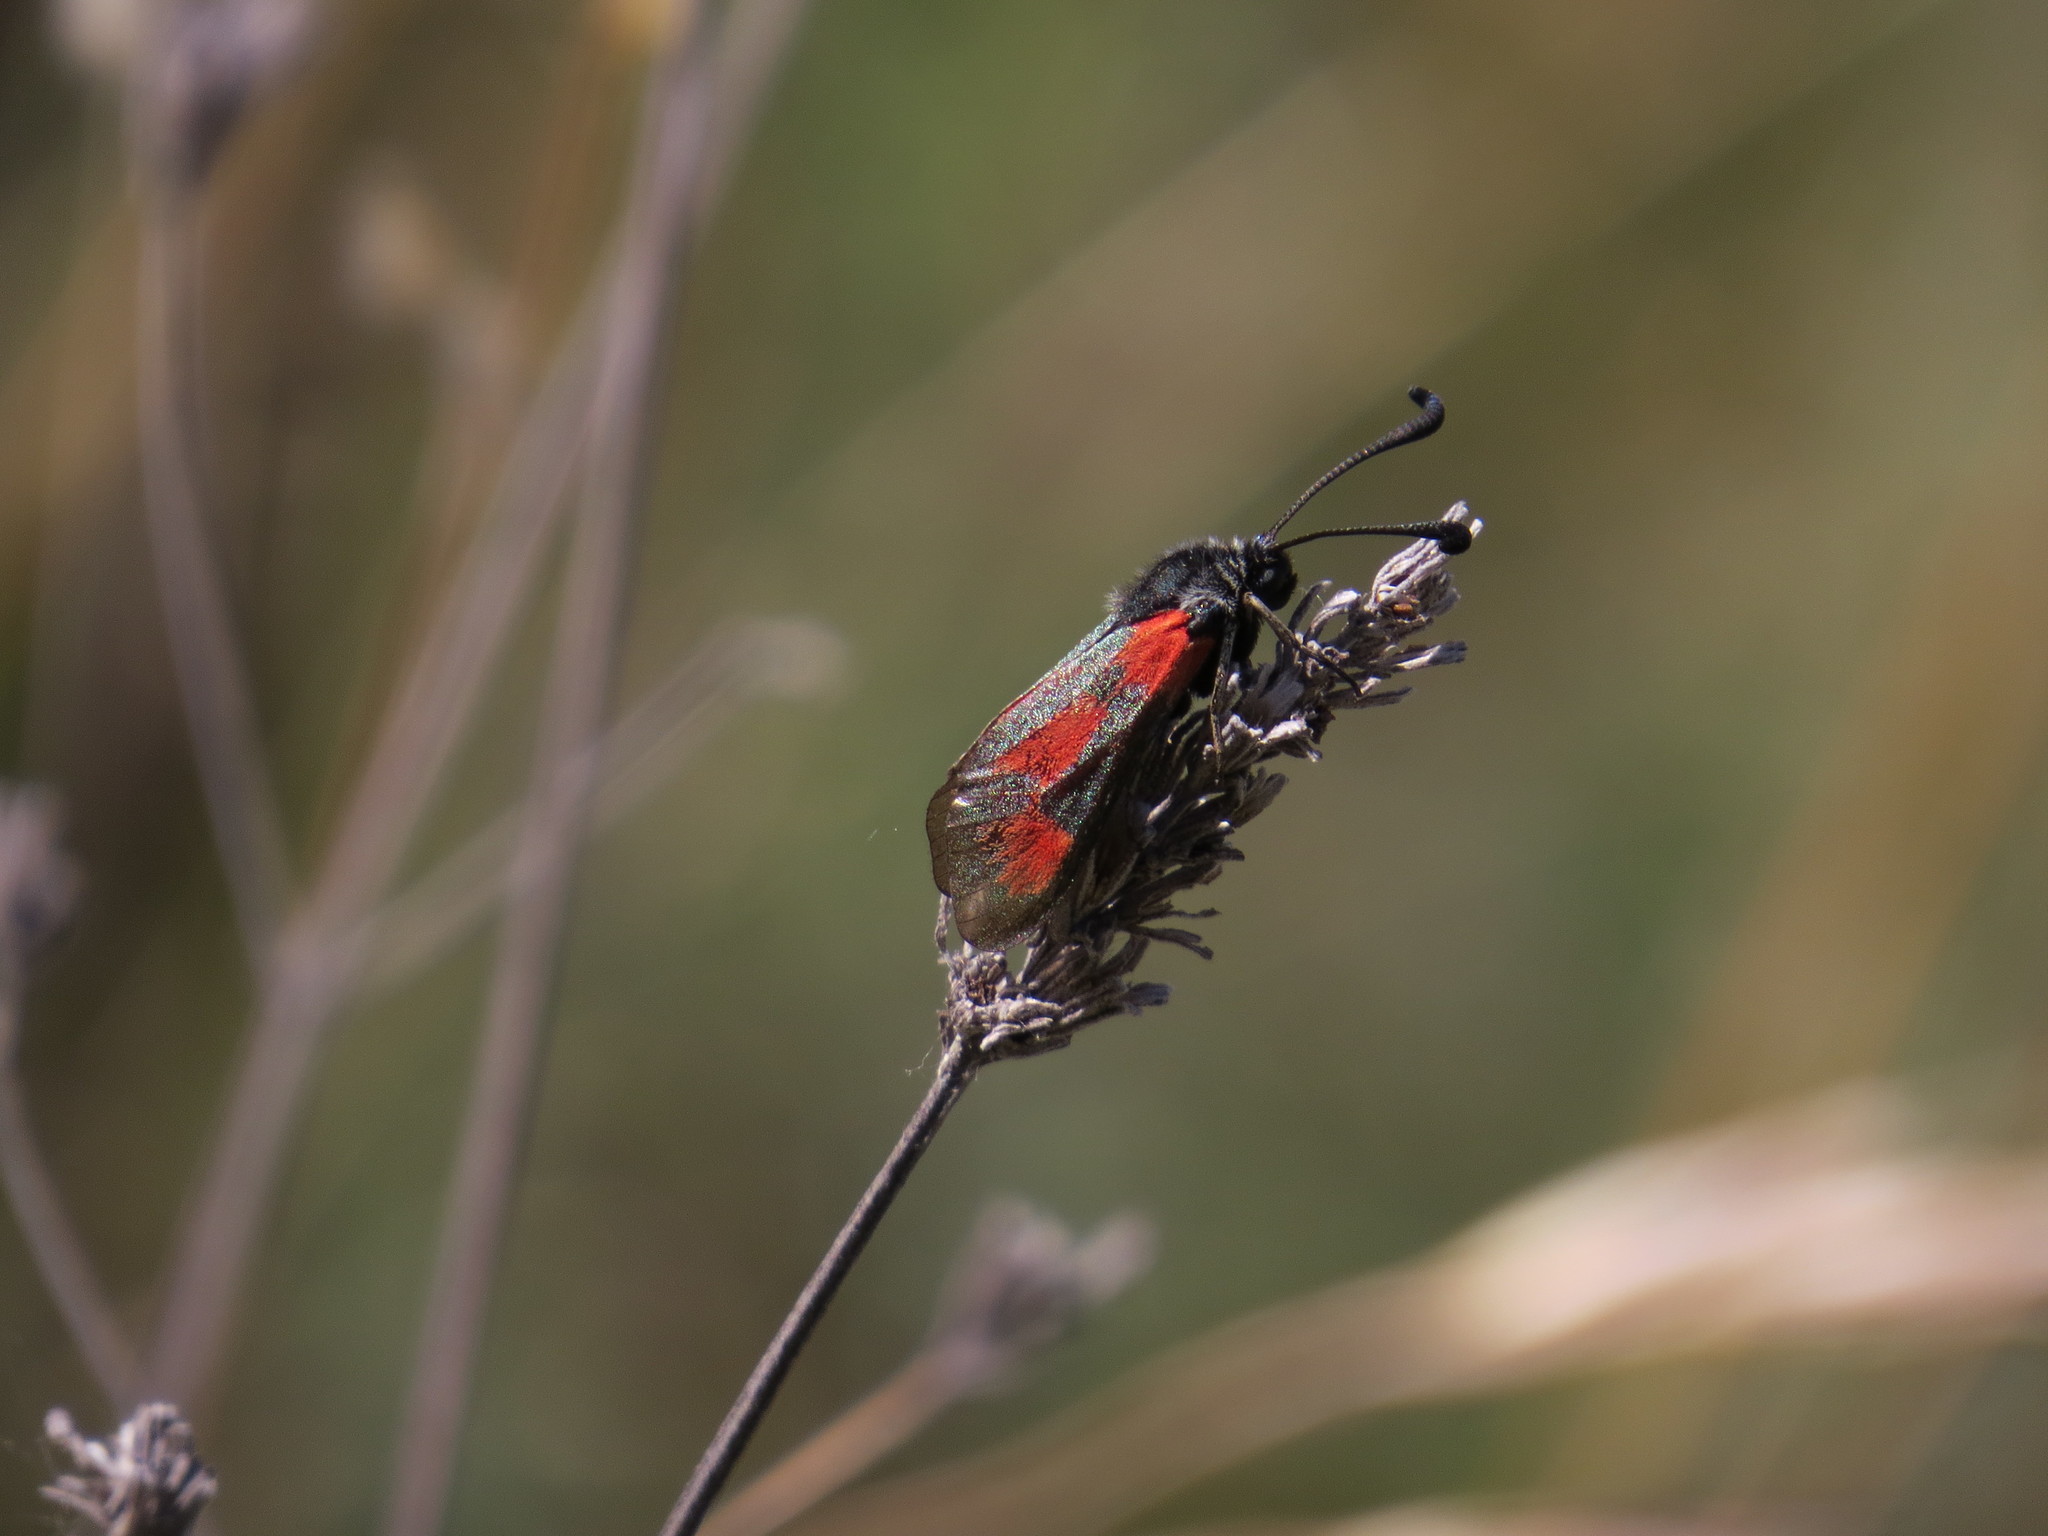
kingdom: Animalia
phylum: Arthropoda
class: Insecta
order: Lepidoptera
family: Zygaenidae
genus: Zygaena
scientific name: Zygaena sarpedon
